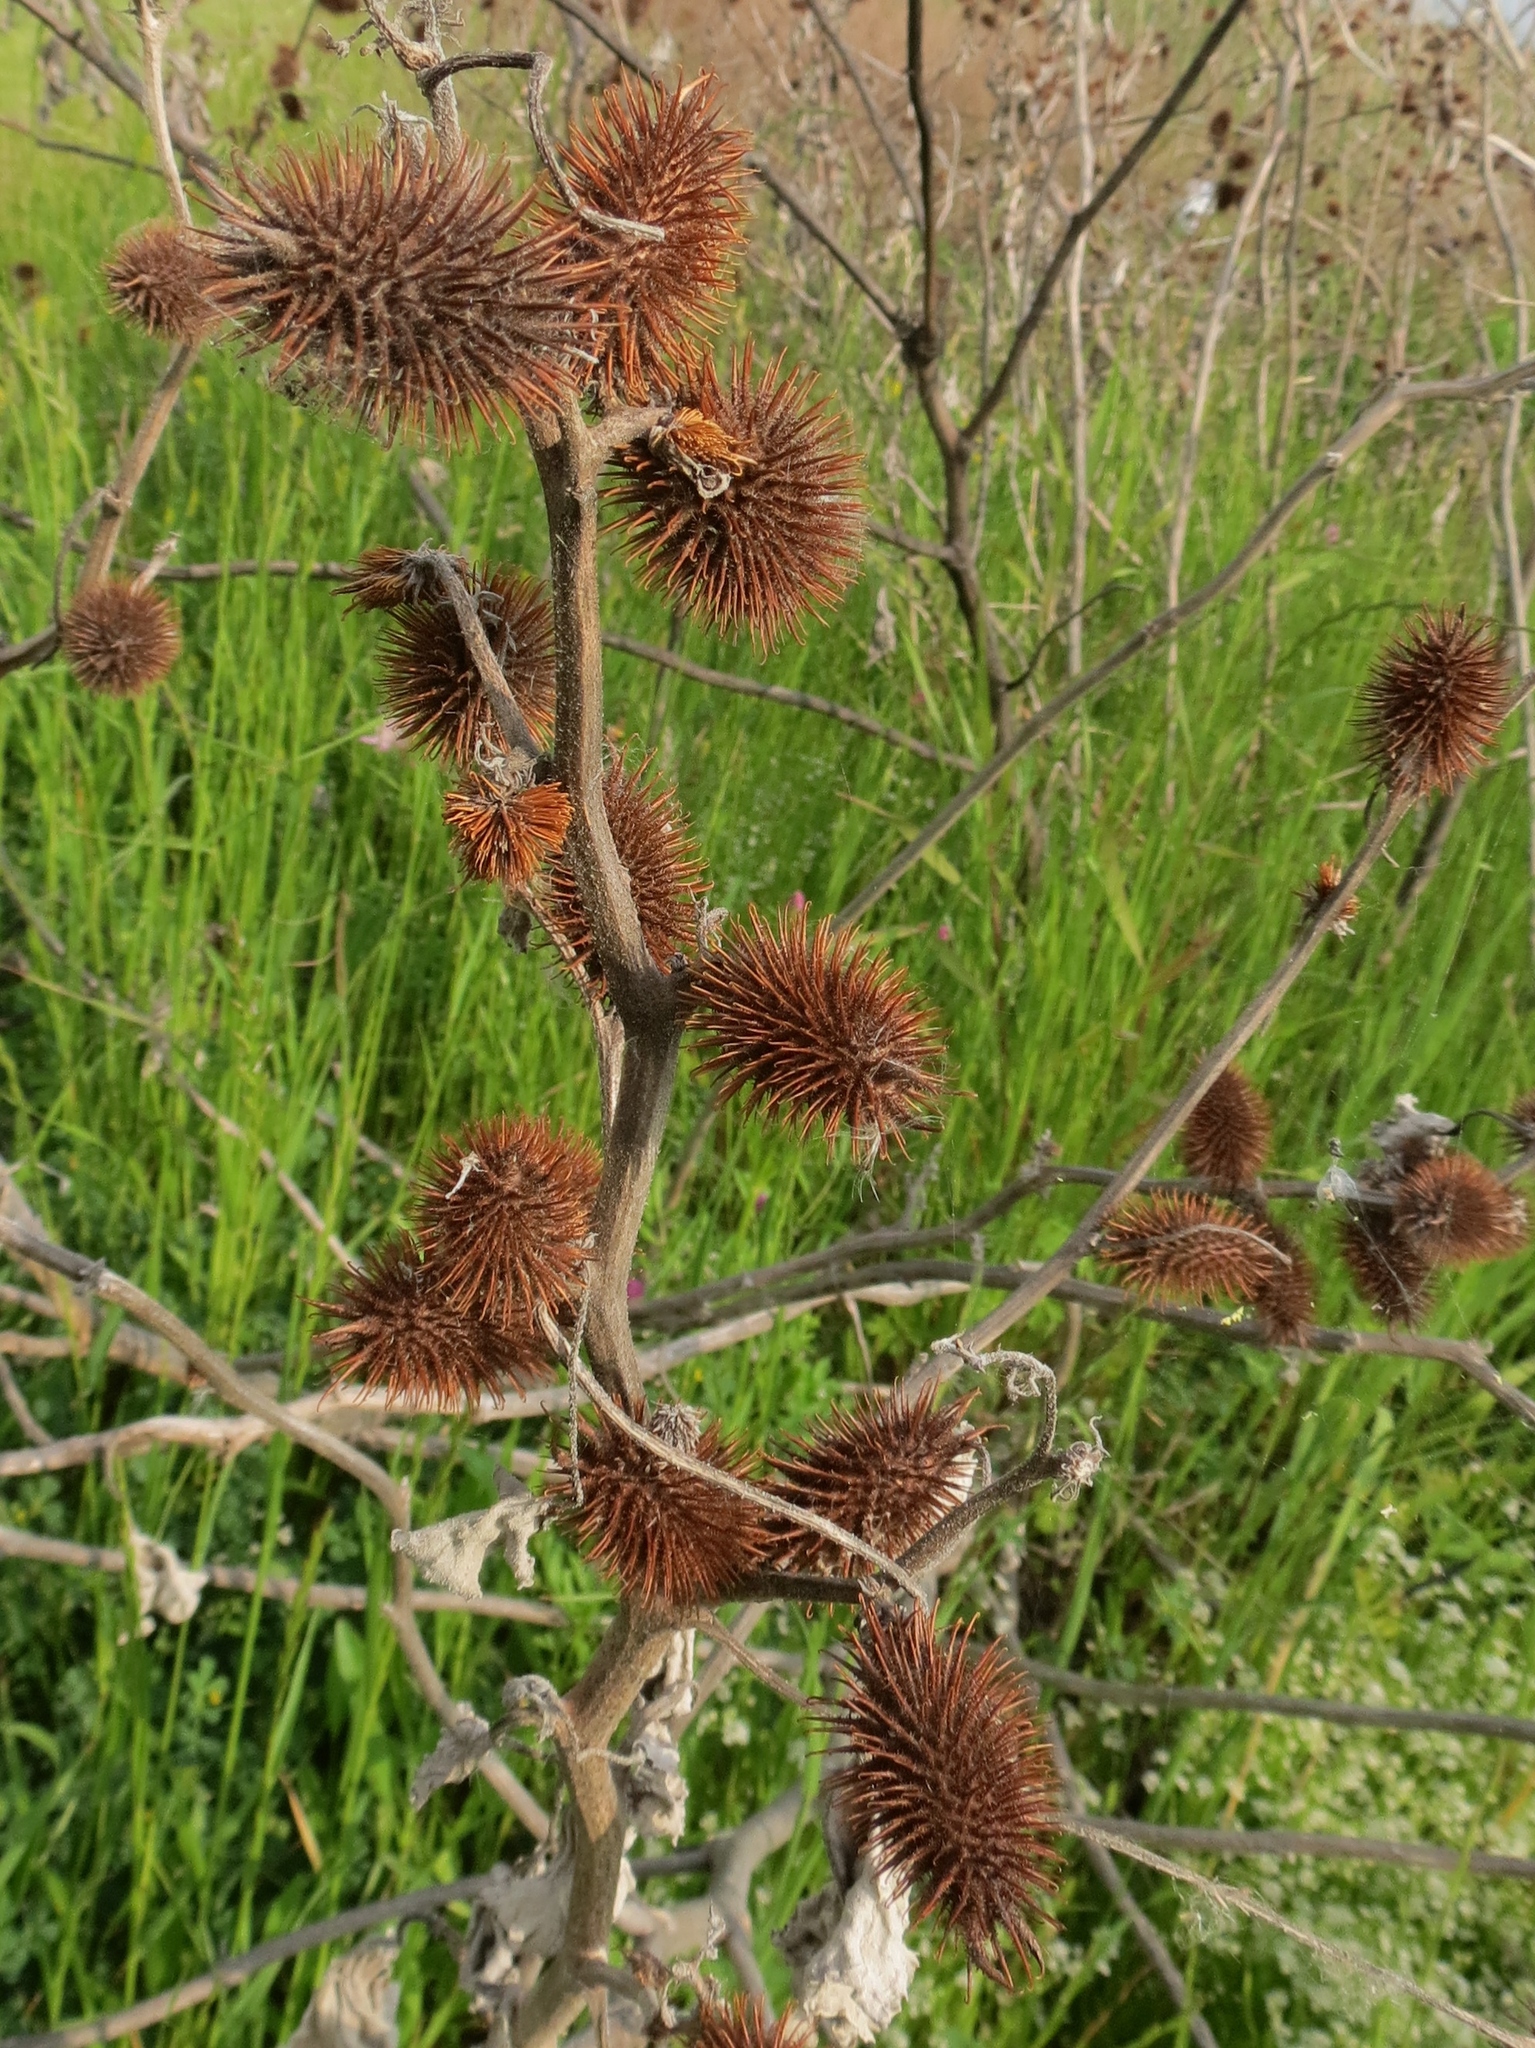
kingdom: Plantae
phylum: Tracheophyta
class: Magnoliopsida
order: Asterales
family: Asteraceae
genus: Xanthium
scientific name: Xanthium strumarium
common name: Rough cocklebur
